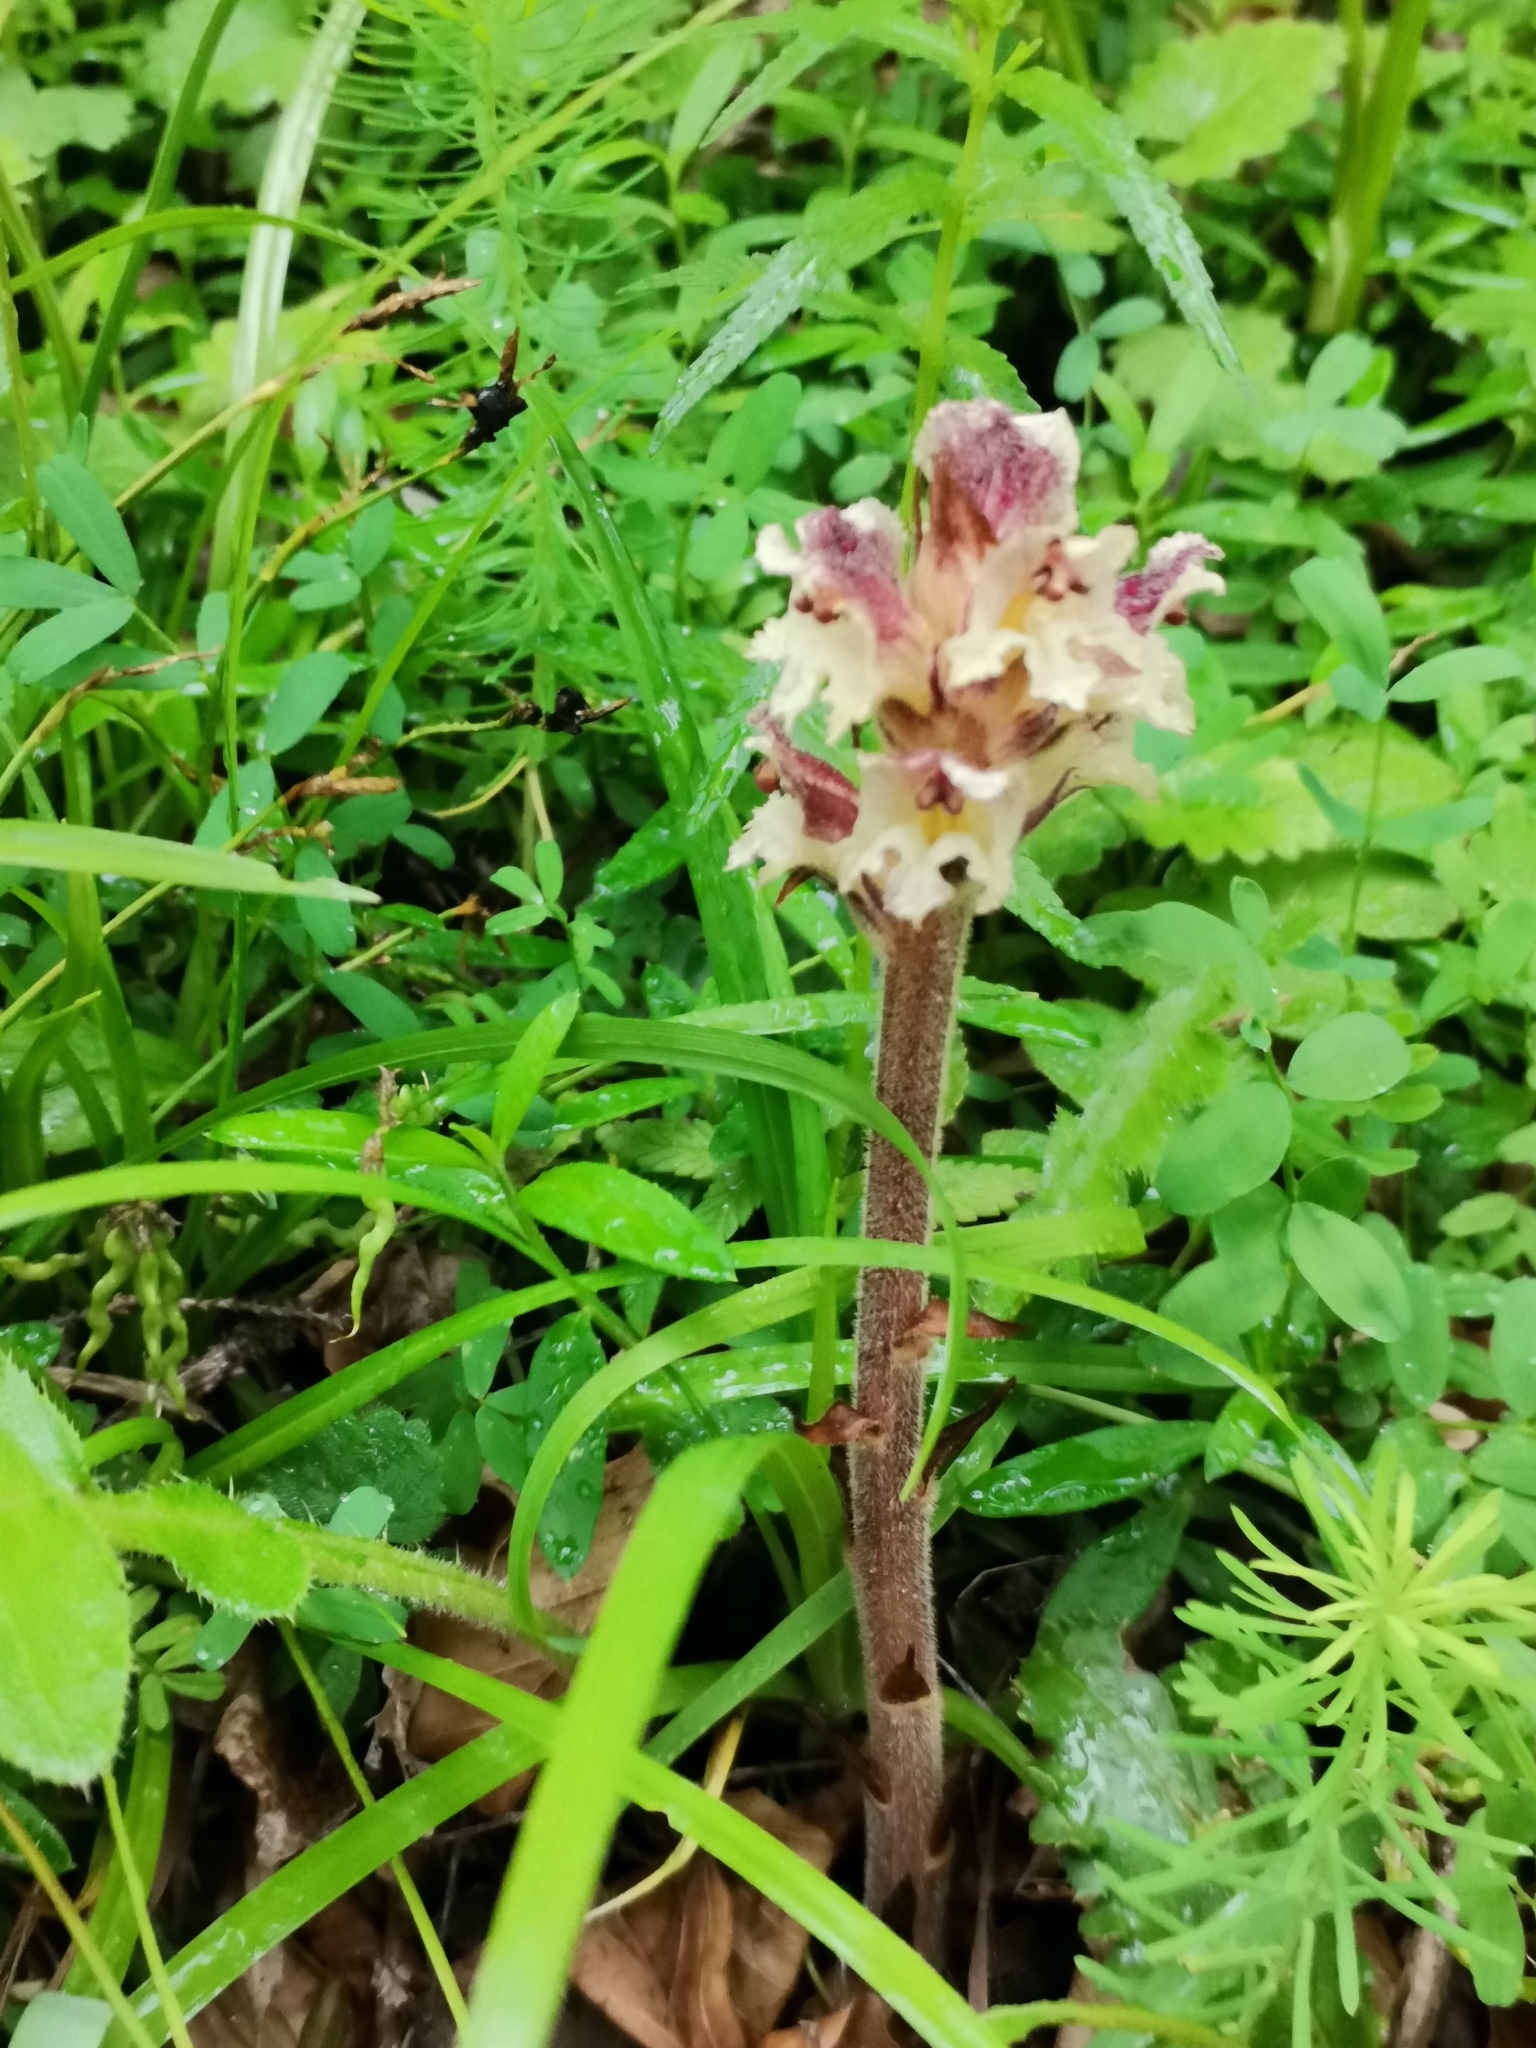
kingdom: Plantae
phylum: Tracheophyta
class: Magnoliopsida
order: Lamiales
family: Orobanchaceae
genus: Orobanche
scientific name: Orobanche reticulata
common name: Thistle broomrape
